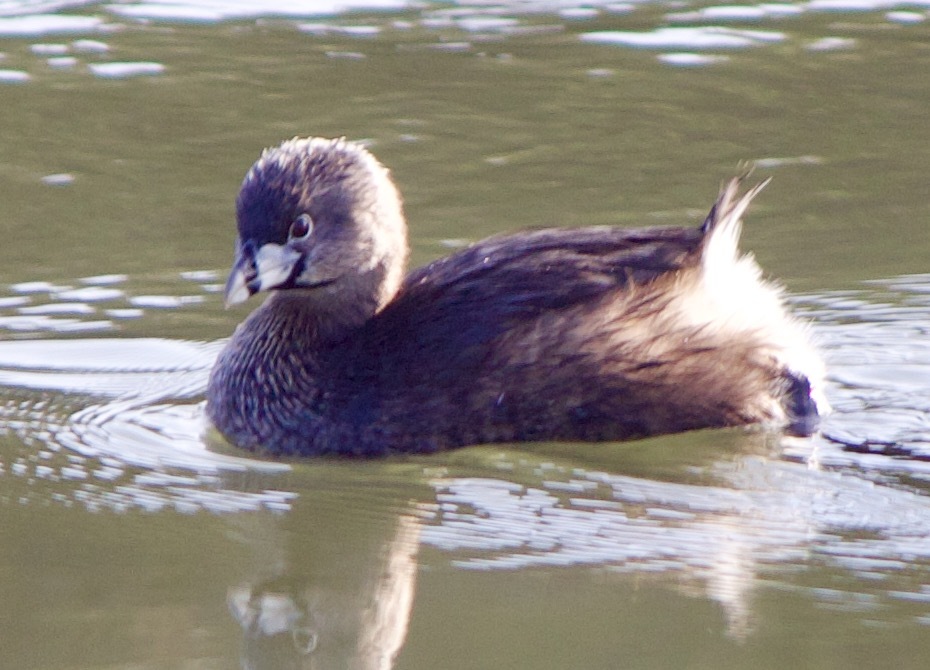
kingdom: Animalia
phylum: Chordata
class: Aves
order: Podicipediformes
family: Podicipedidae
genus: Podilymbus
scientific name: Podilymbus podiceps
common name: Pied-billed grebe
